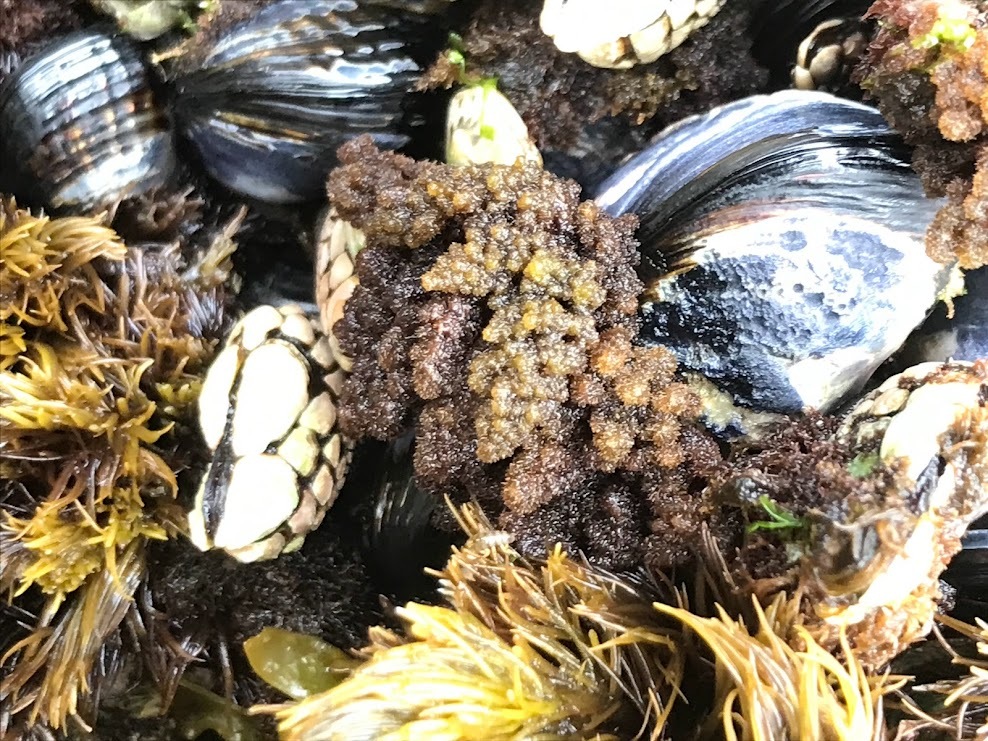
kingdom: Plantae
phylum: Rhodophyta
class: Florideophyceae
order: Ceramiales
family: Callithamniaceae
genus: Callithamnion
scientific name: Callithamnion pikeanum
